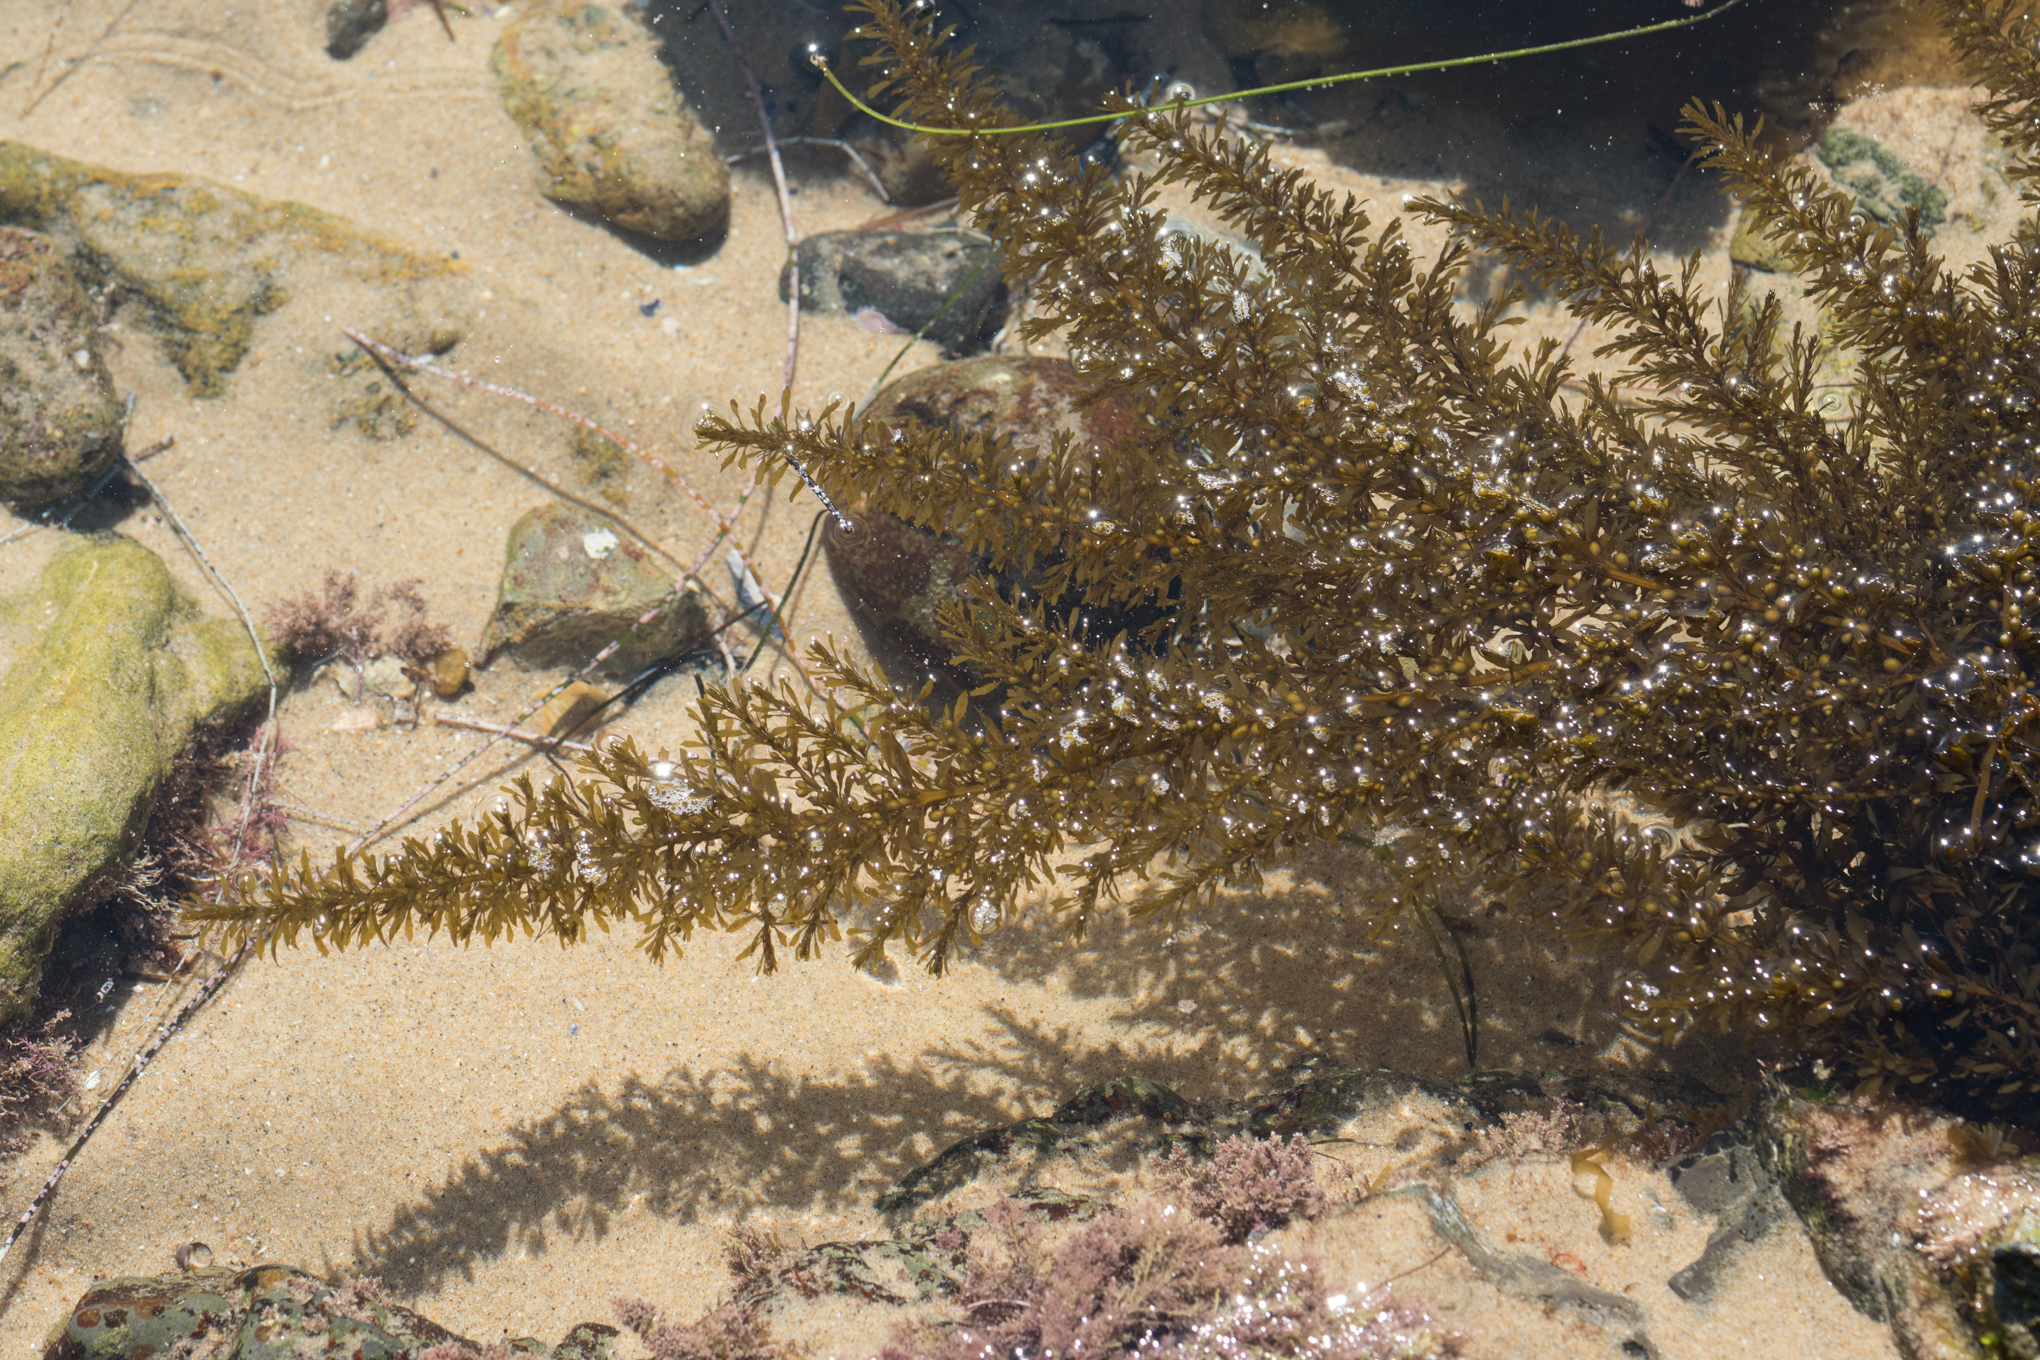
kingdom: Chromista
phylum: Ochrophyta
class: Phaeophyceae
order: Fucales
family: Sargassaceae
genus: Sargassum
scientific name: Sargassum muticum
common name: Japweed
